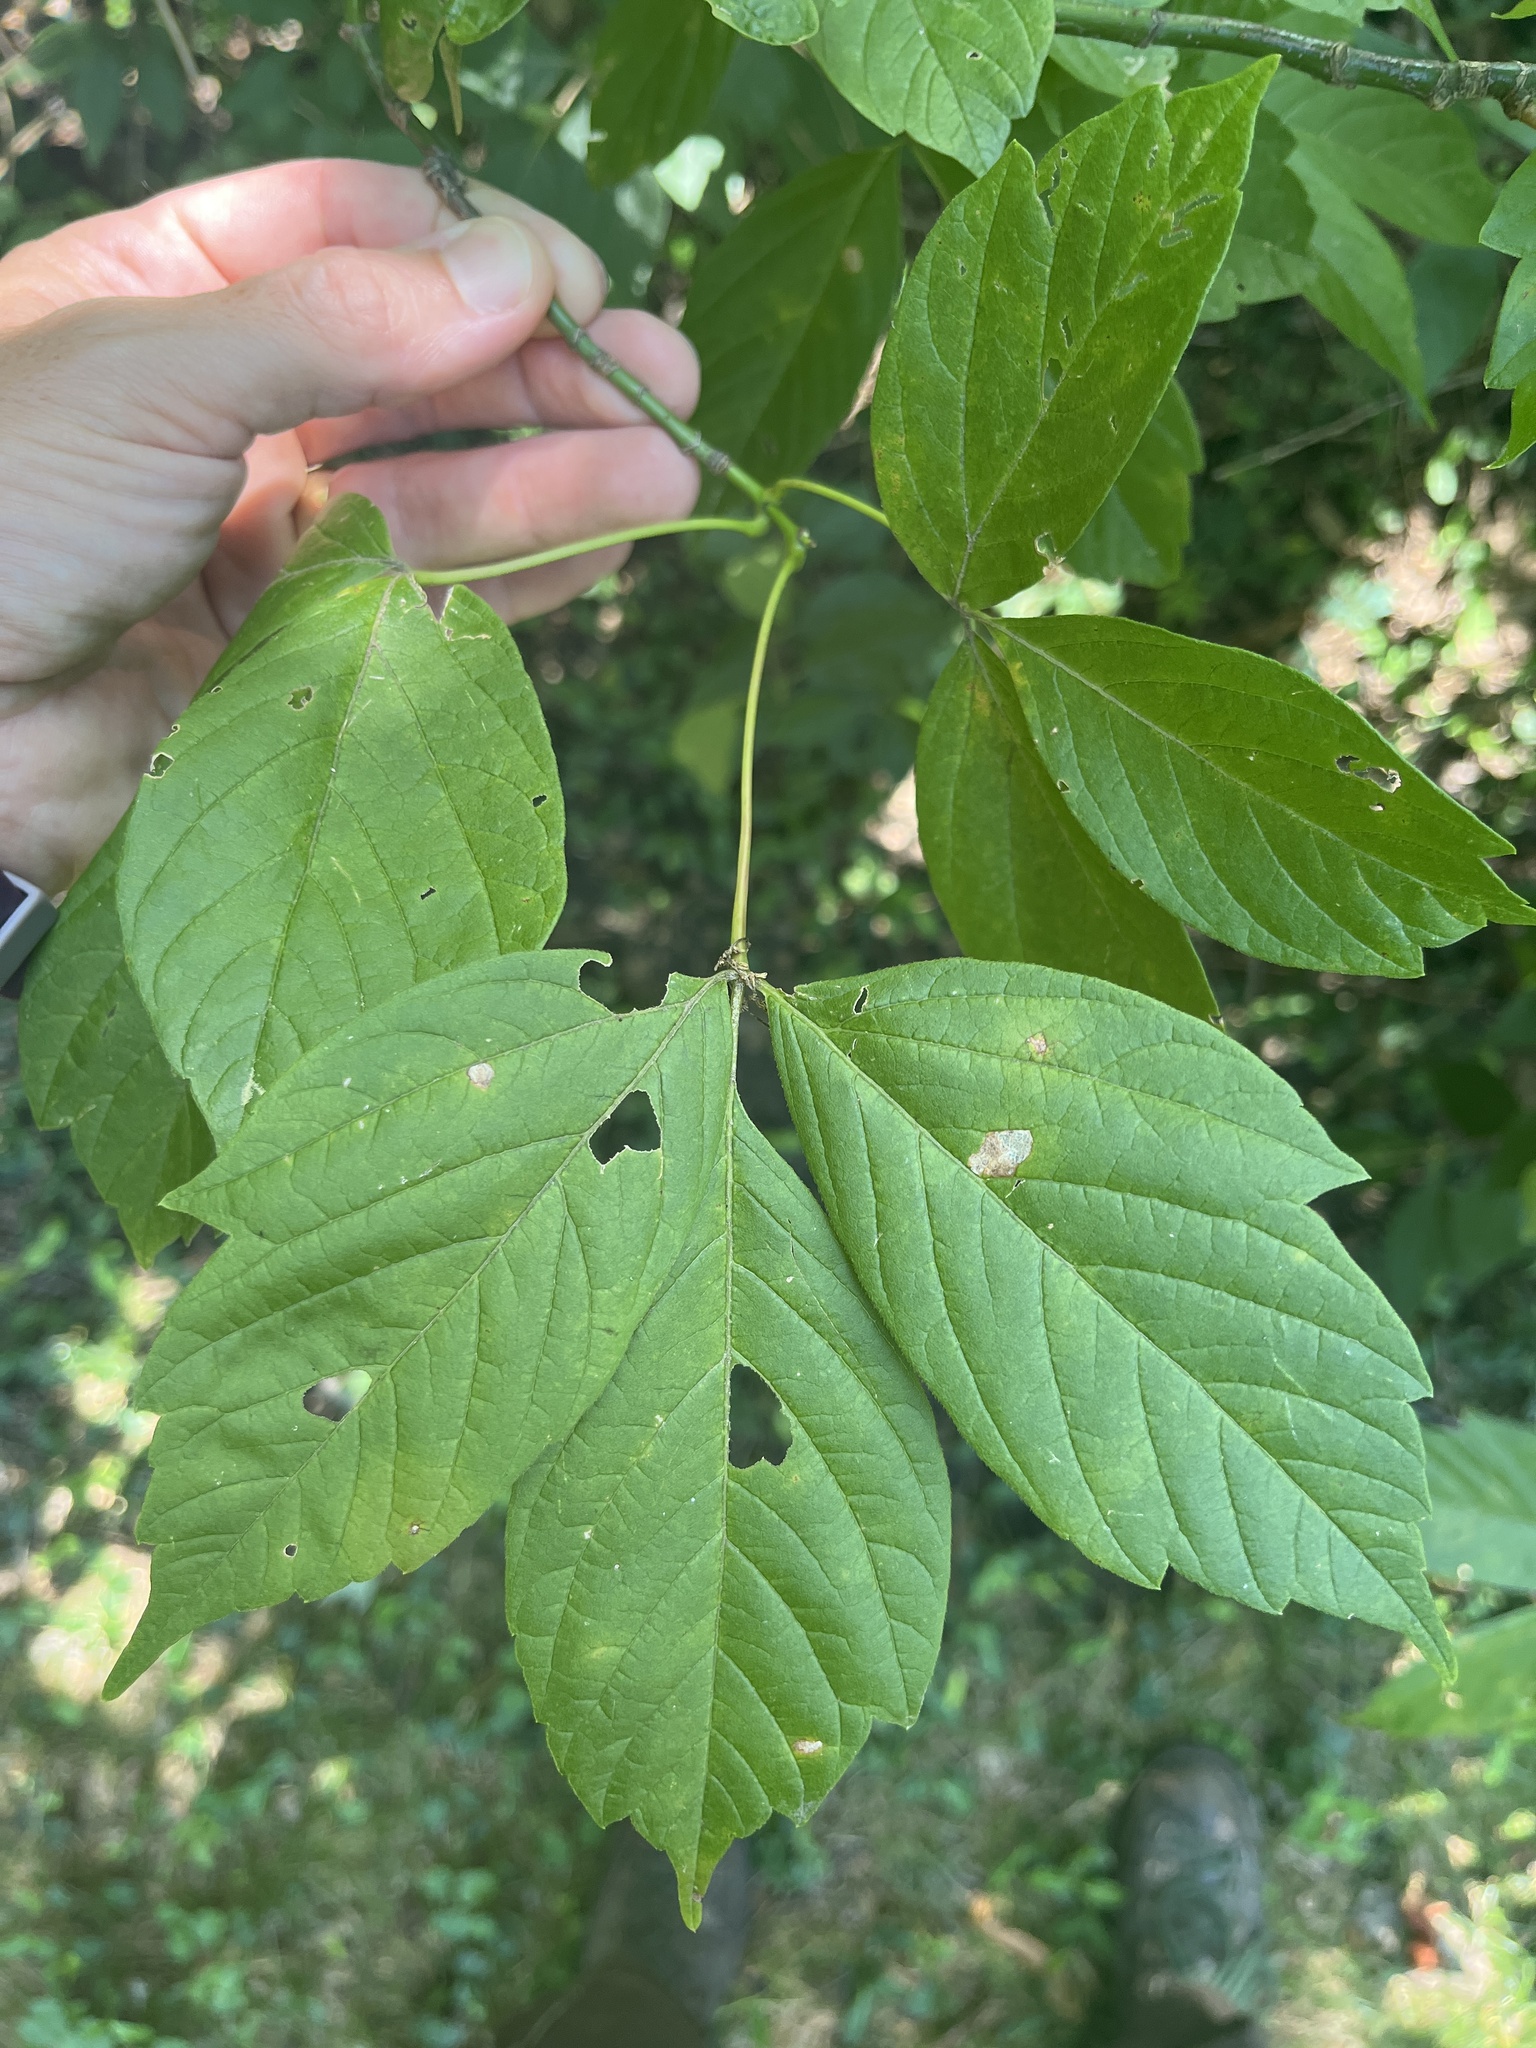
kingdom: Plantae
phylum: Tracheophyta
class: Magnoliopsida
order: Sapindales
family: Sapindaceae
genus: Acer
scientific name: Acer negundo
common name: Ashleaf maple
